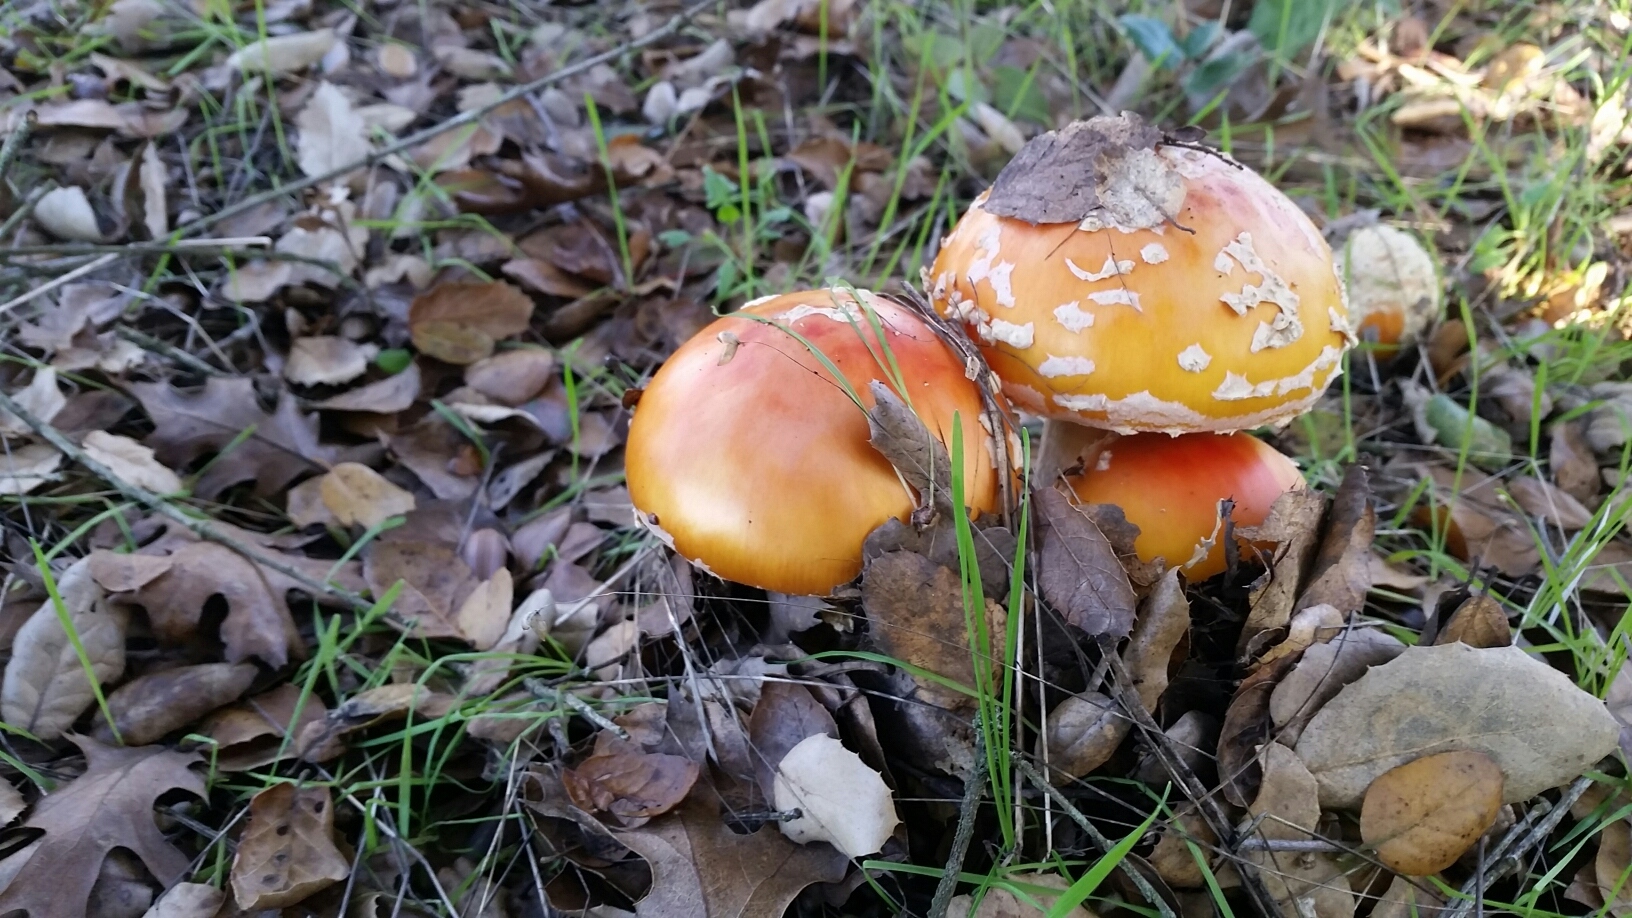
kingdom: Fungi
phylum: Basidiomycota
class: Agaricomycetes
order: Agaricales
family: Amanitaceae
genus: Amanita
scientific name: Amanita muscaria
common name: Fly agaric
